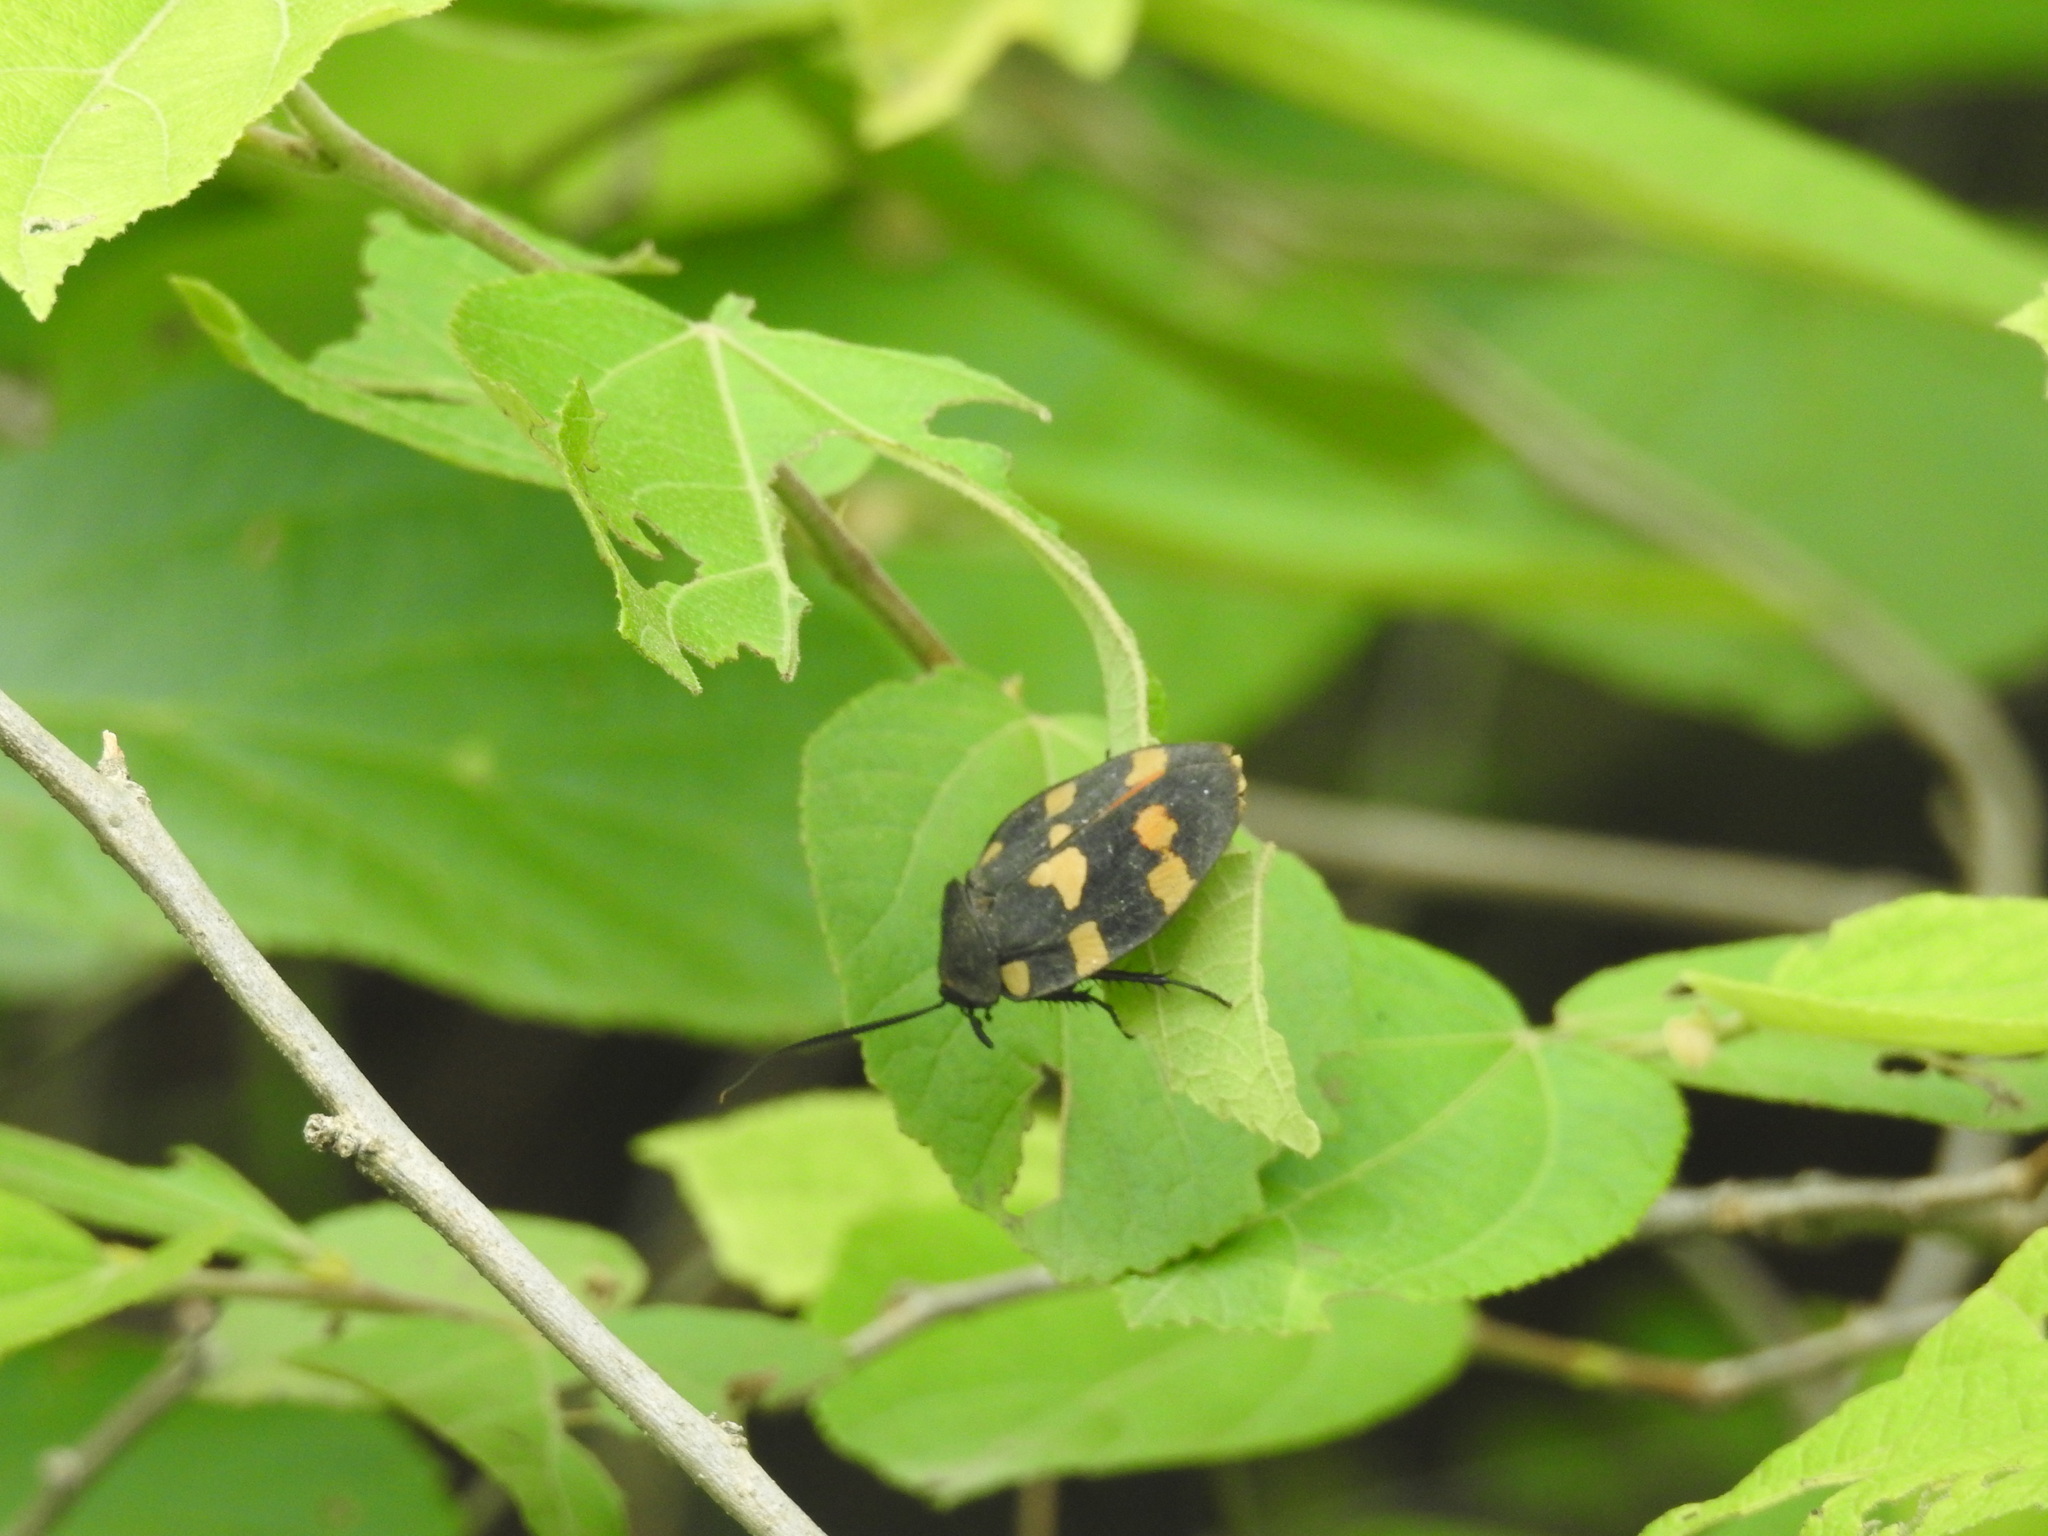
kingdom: Animalia
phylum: Arthropoda
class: Insecta
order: Blattodea
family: Corydiidae
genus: Therea
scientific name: Therea nuptialis
